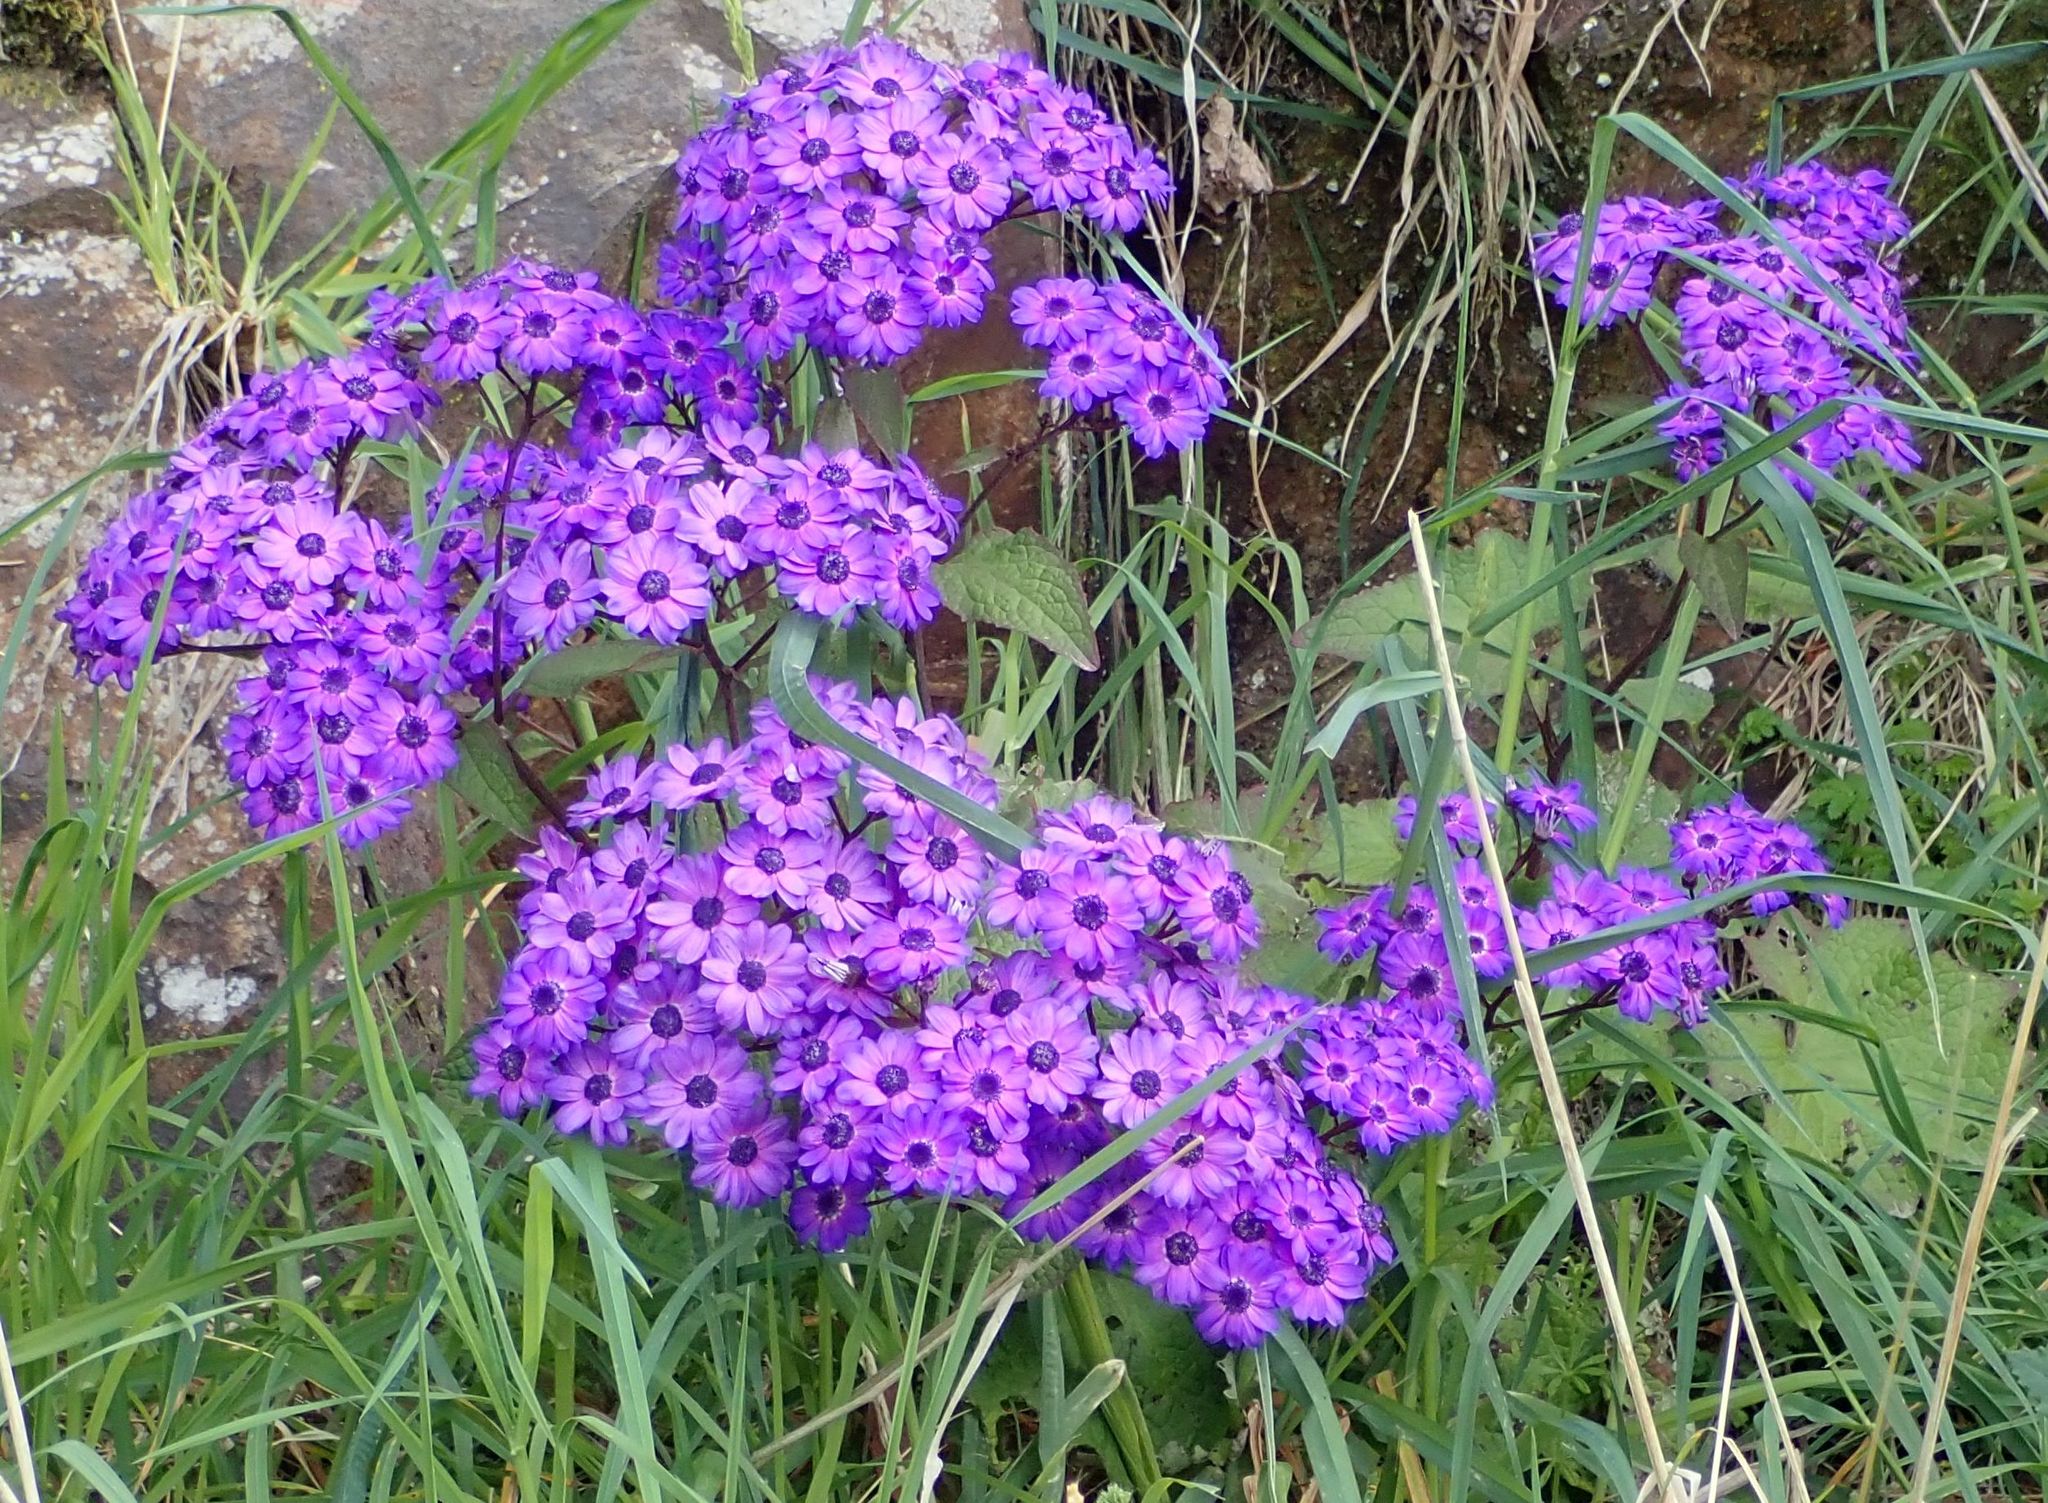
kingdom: Plantae
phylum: Tracheophyta
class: Magnoliopsida
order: Asterales
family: Asteraceae
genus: Pericallis
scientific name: Pericallis hybrida
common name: Cineraria
